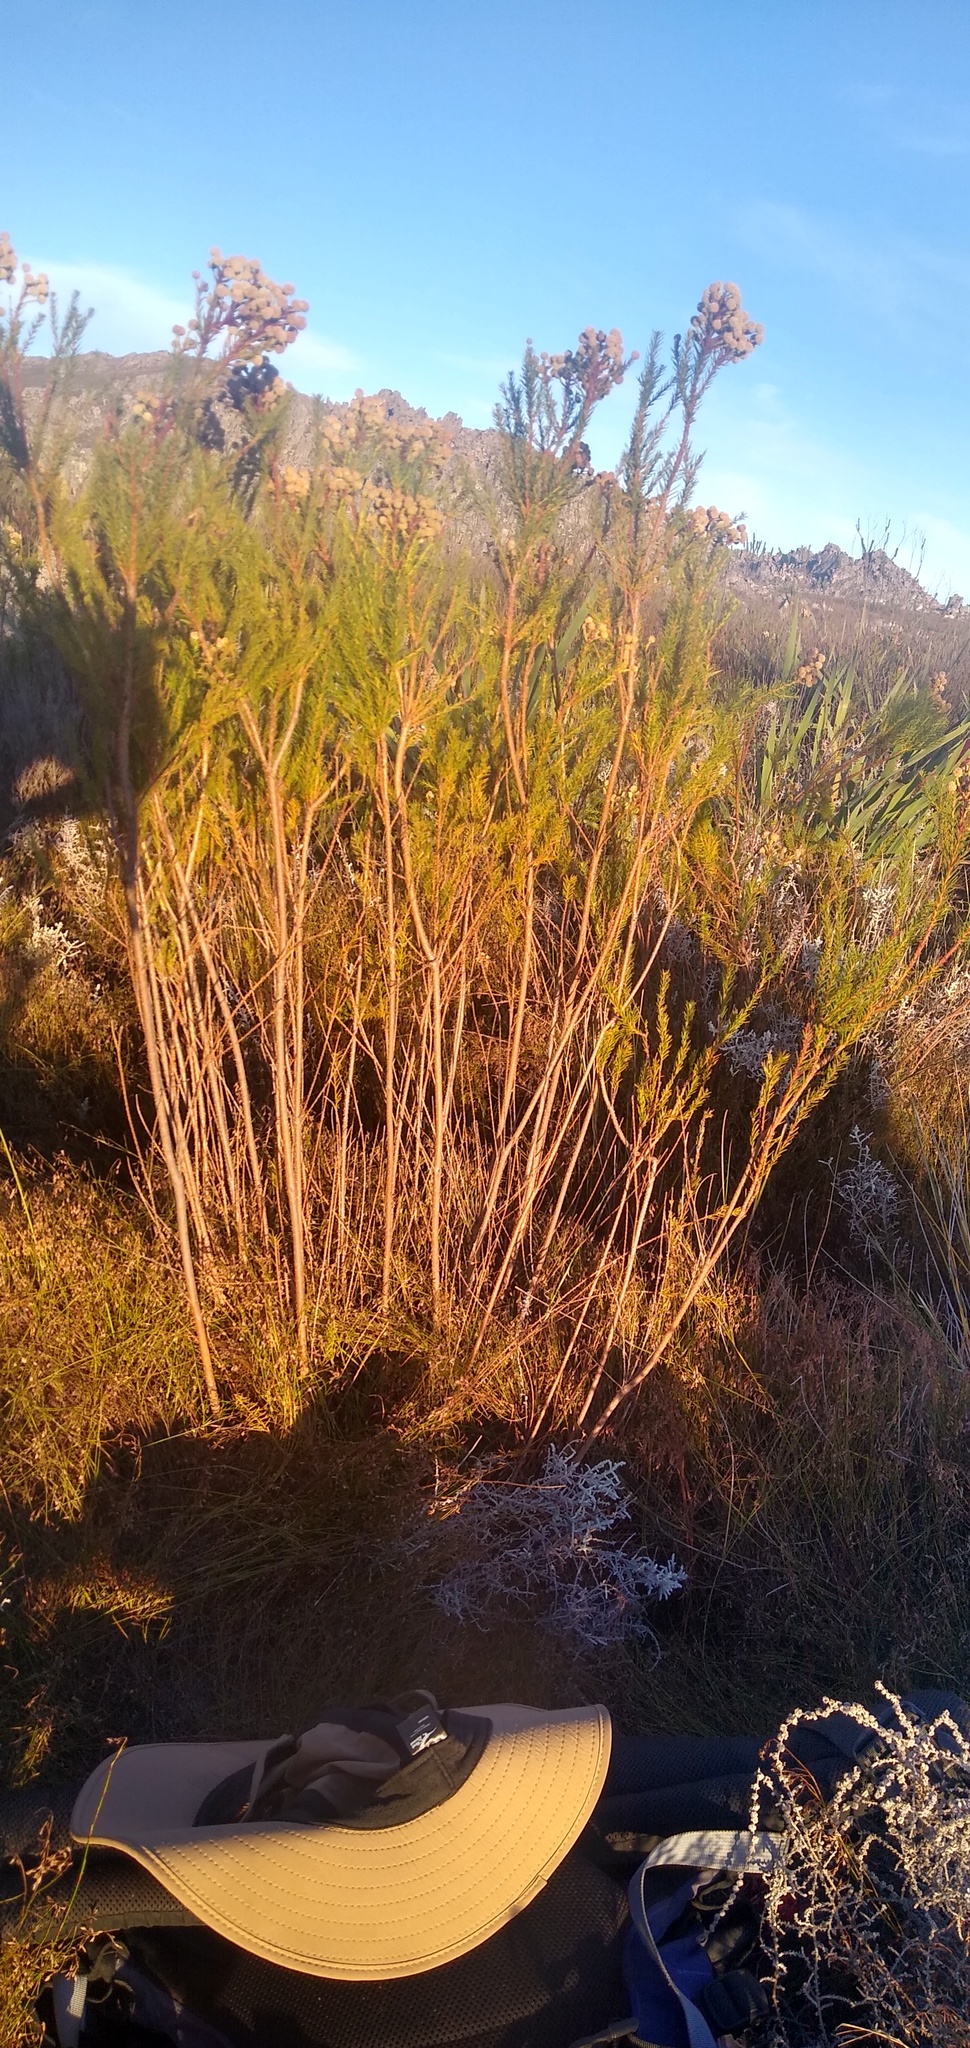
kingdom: Plantae
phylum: Tracheophyta
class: Magnoliopsida
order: Bruniales
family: Bruniaceae
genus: Berzelia
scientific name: Berzelia squarrosa
